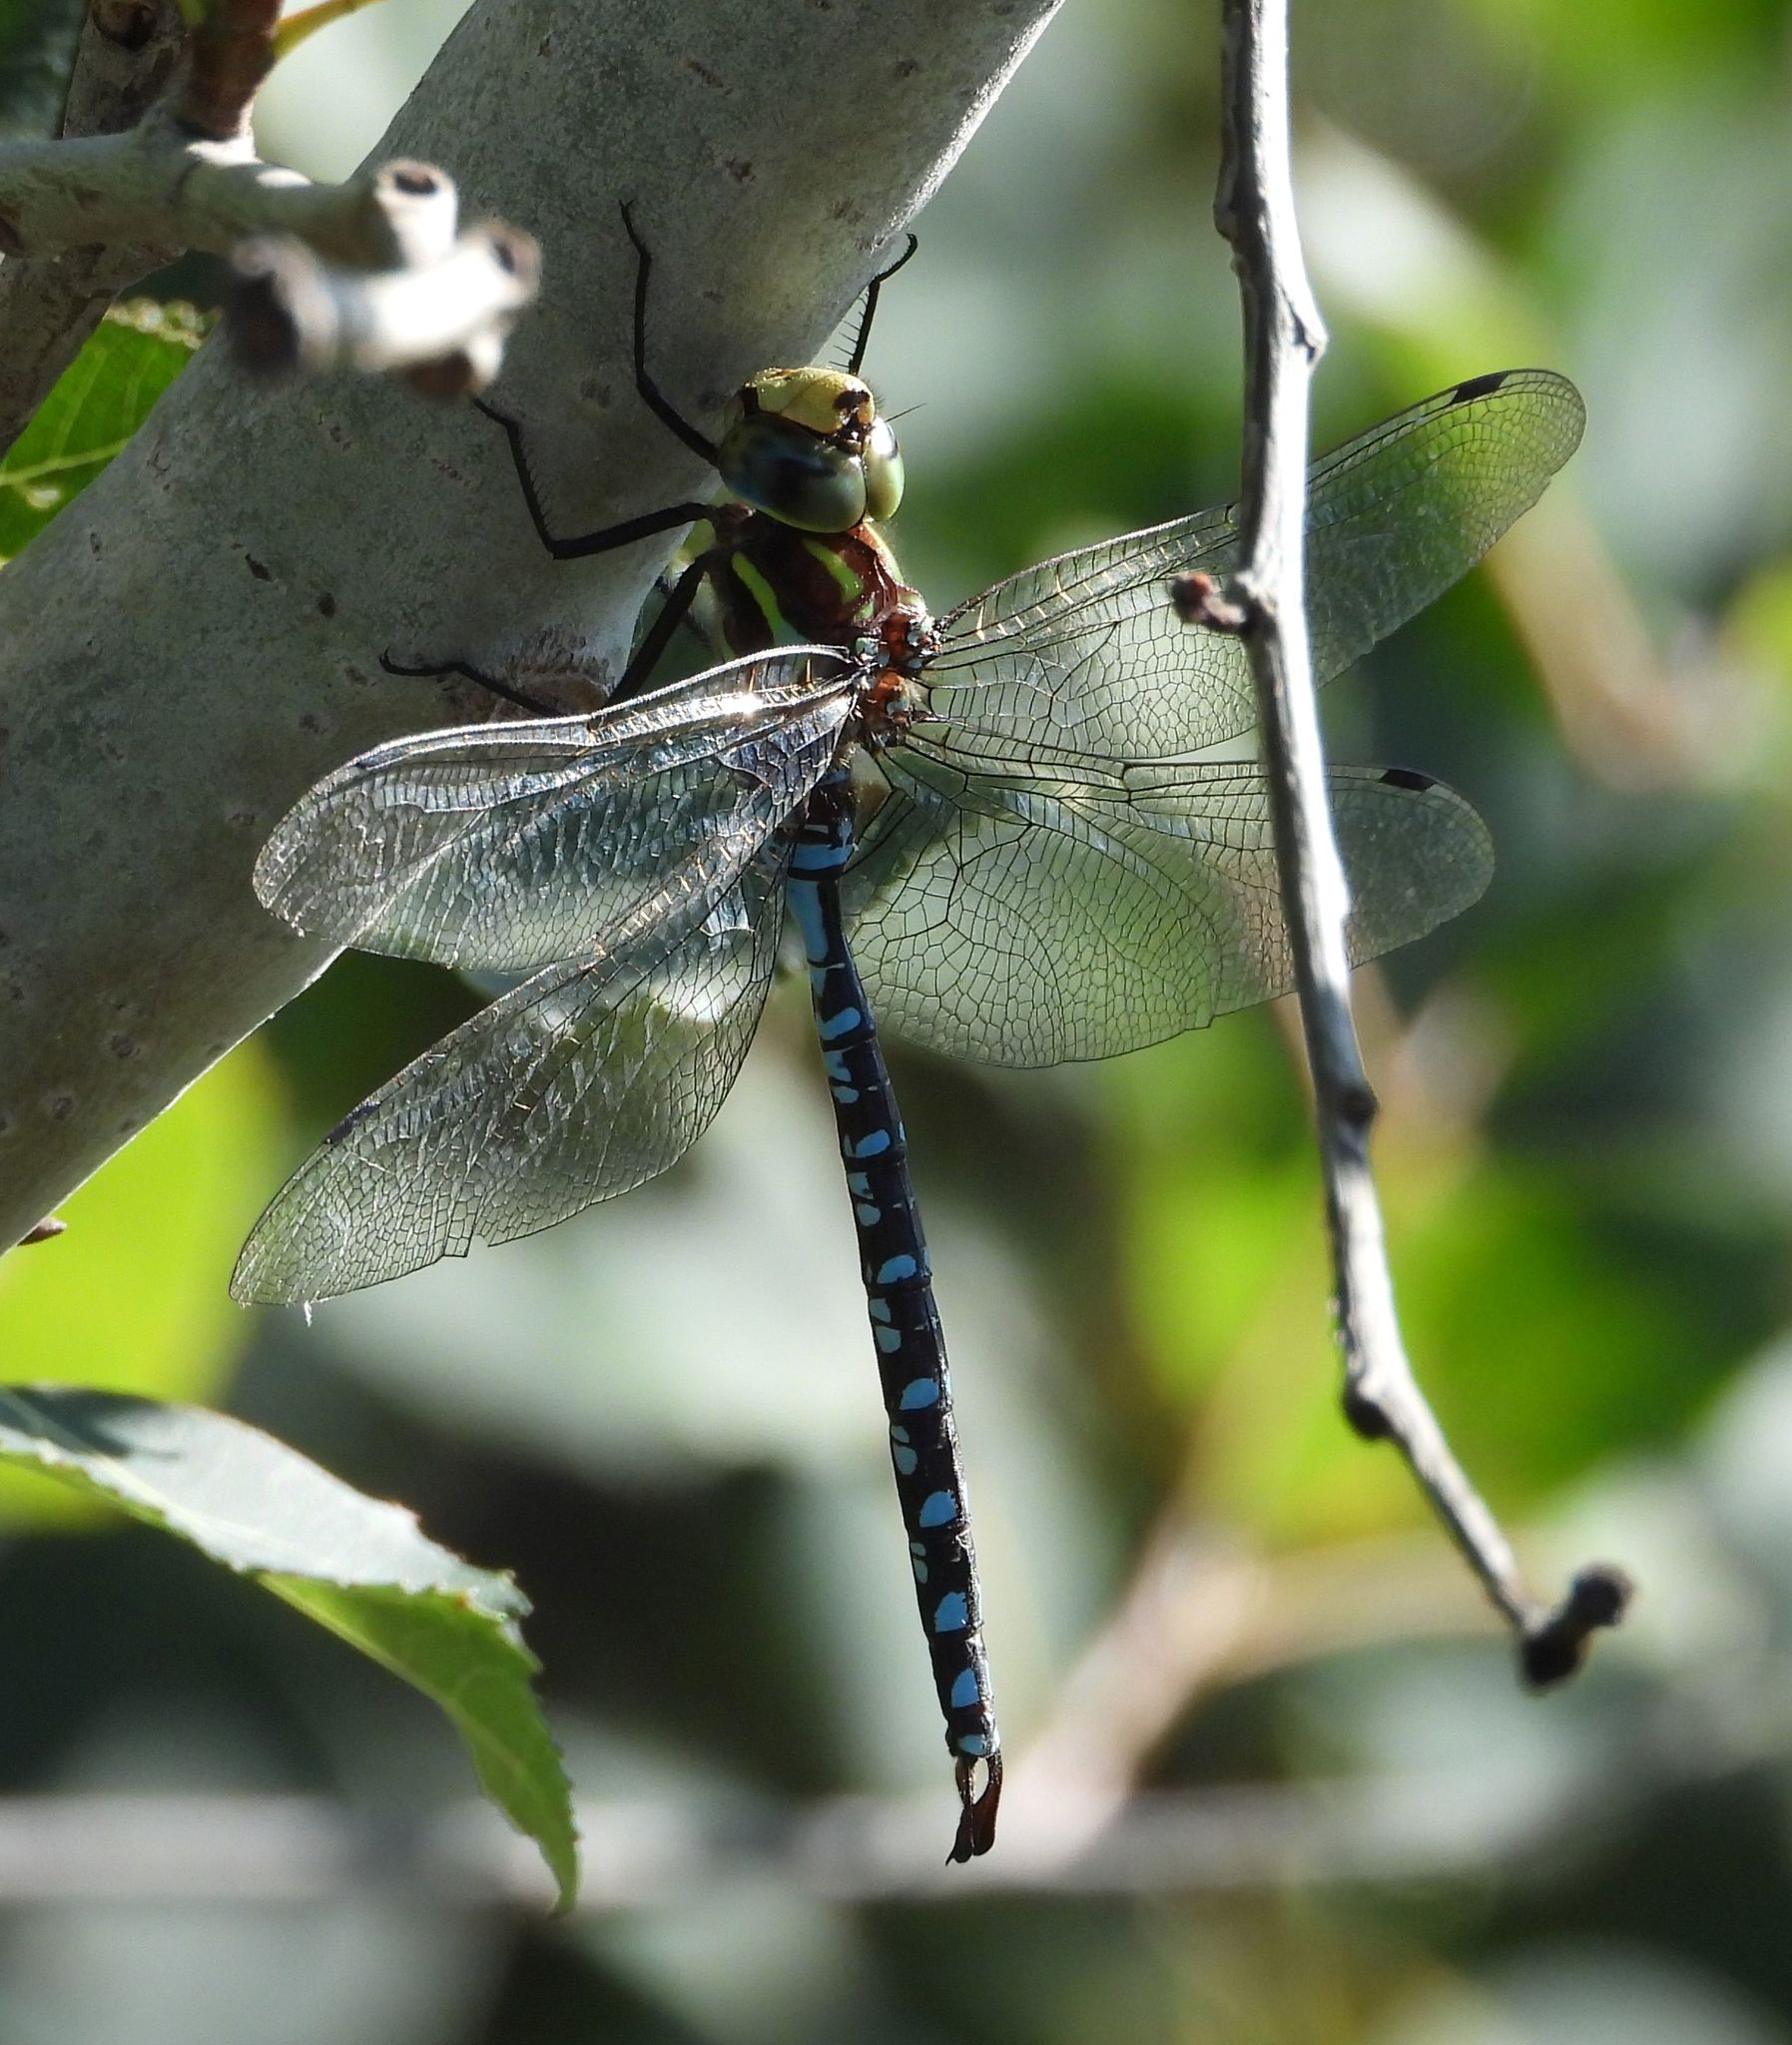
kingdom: Animalia
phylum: Arthropoda
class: Insecta
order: Odonata
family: Aeshnidae
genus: Aeshna
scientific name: Aeshna constricta
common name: Lance-tipped darner
